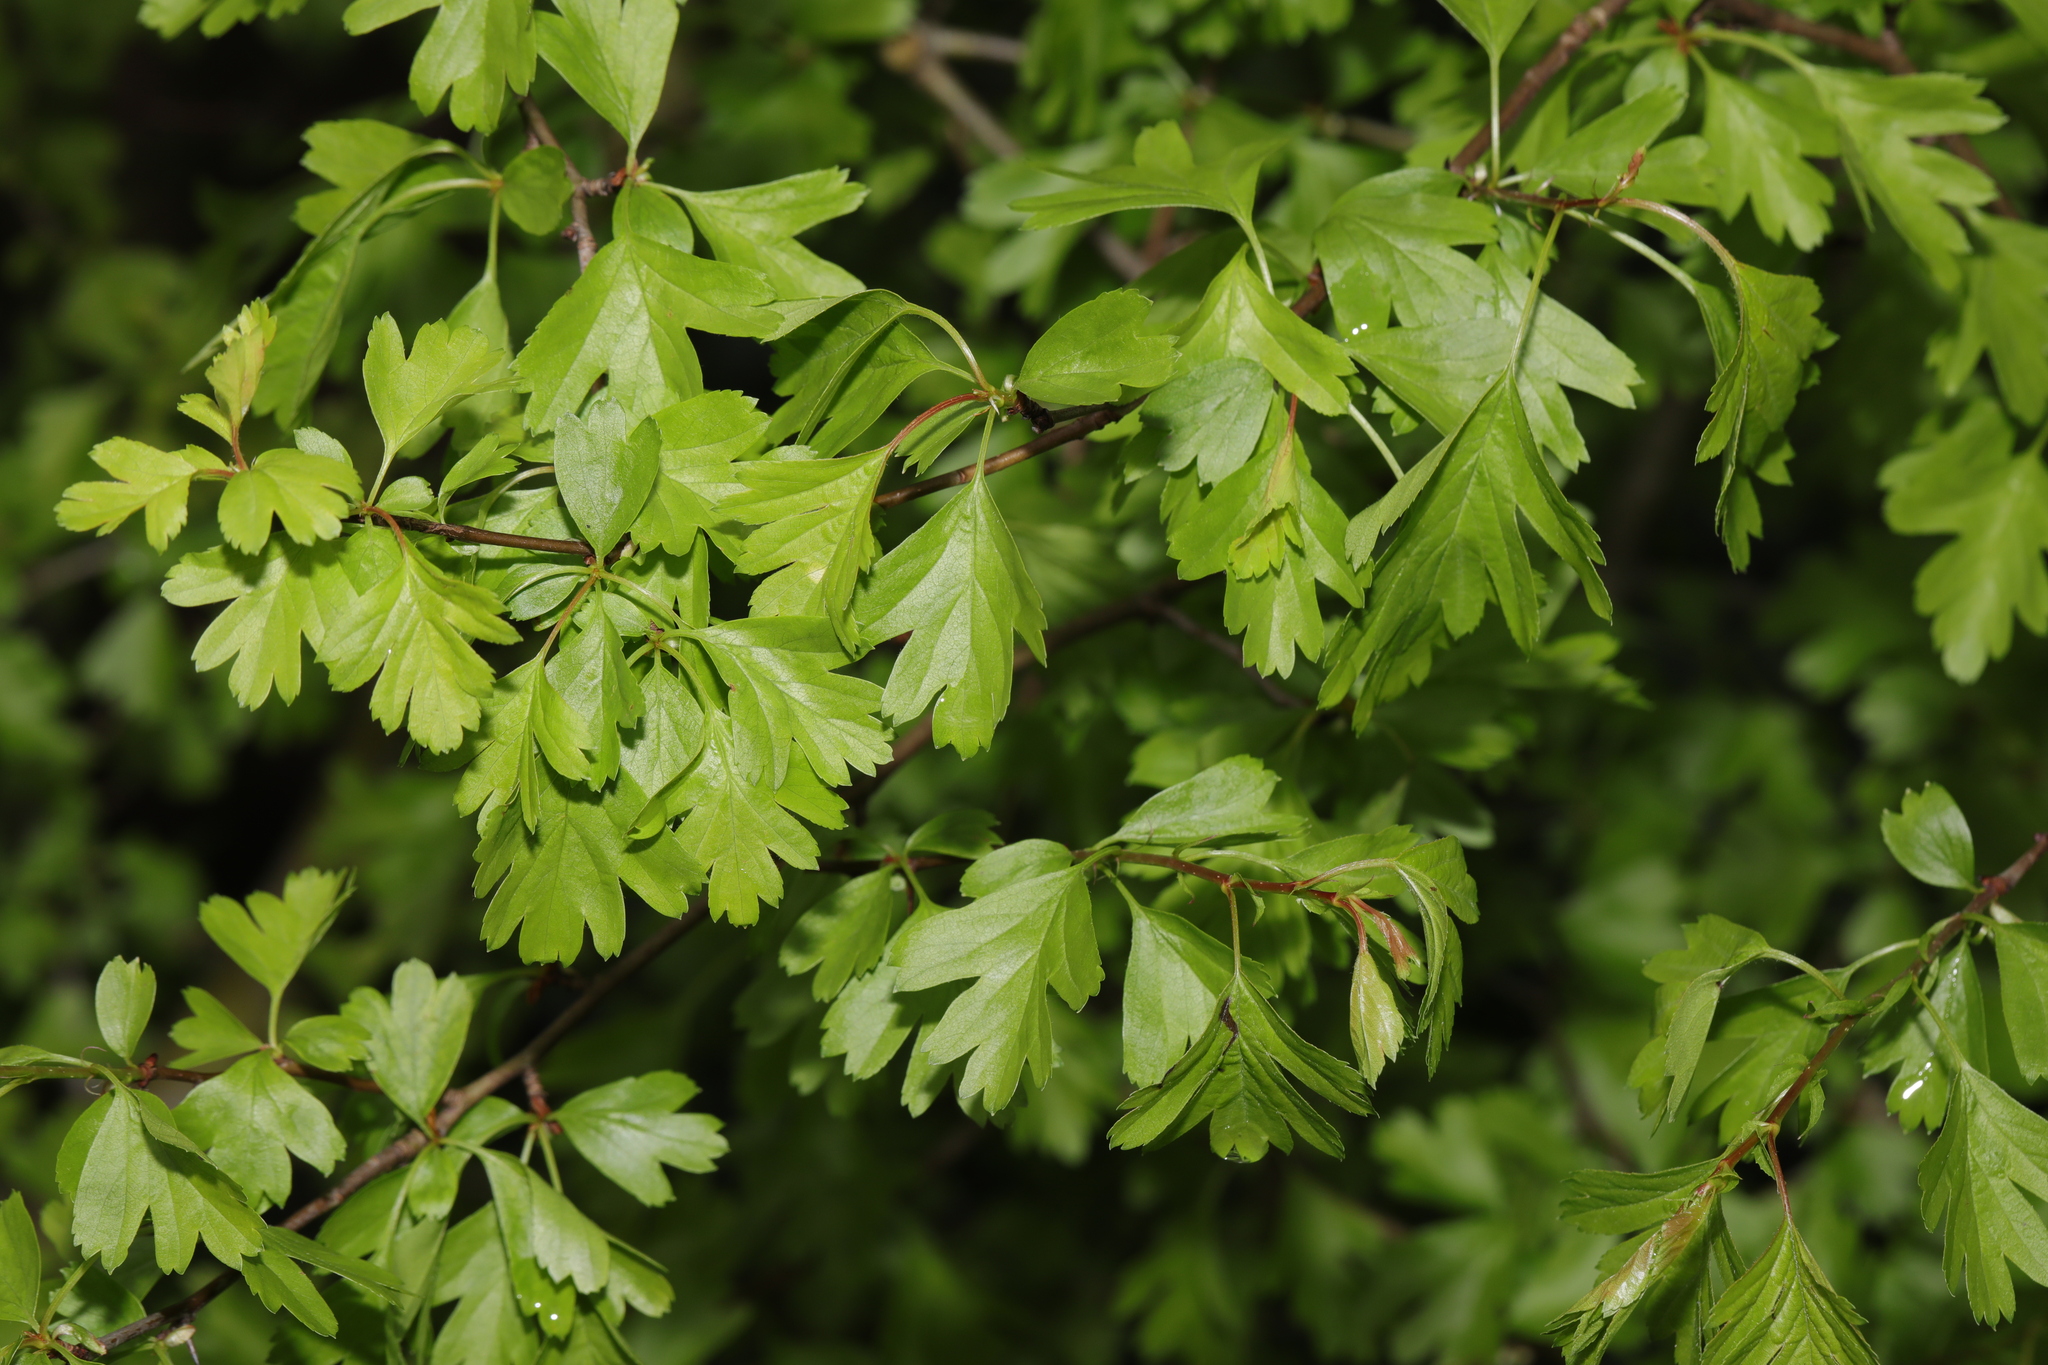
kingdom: Plantae
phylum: Tracheophyta
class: Magnoliopsida
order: Rosales
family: Rosaceae
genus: Crataegus
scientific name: Crataegus monogyna
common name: Hawthorn
